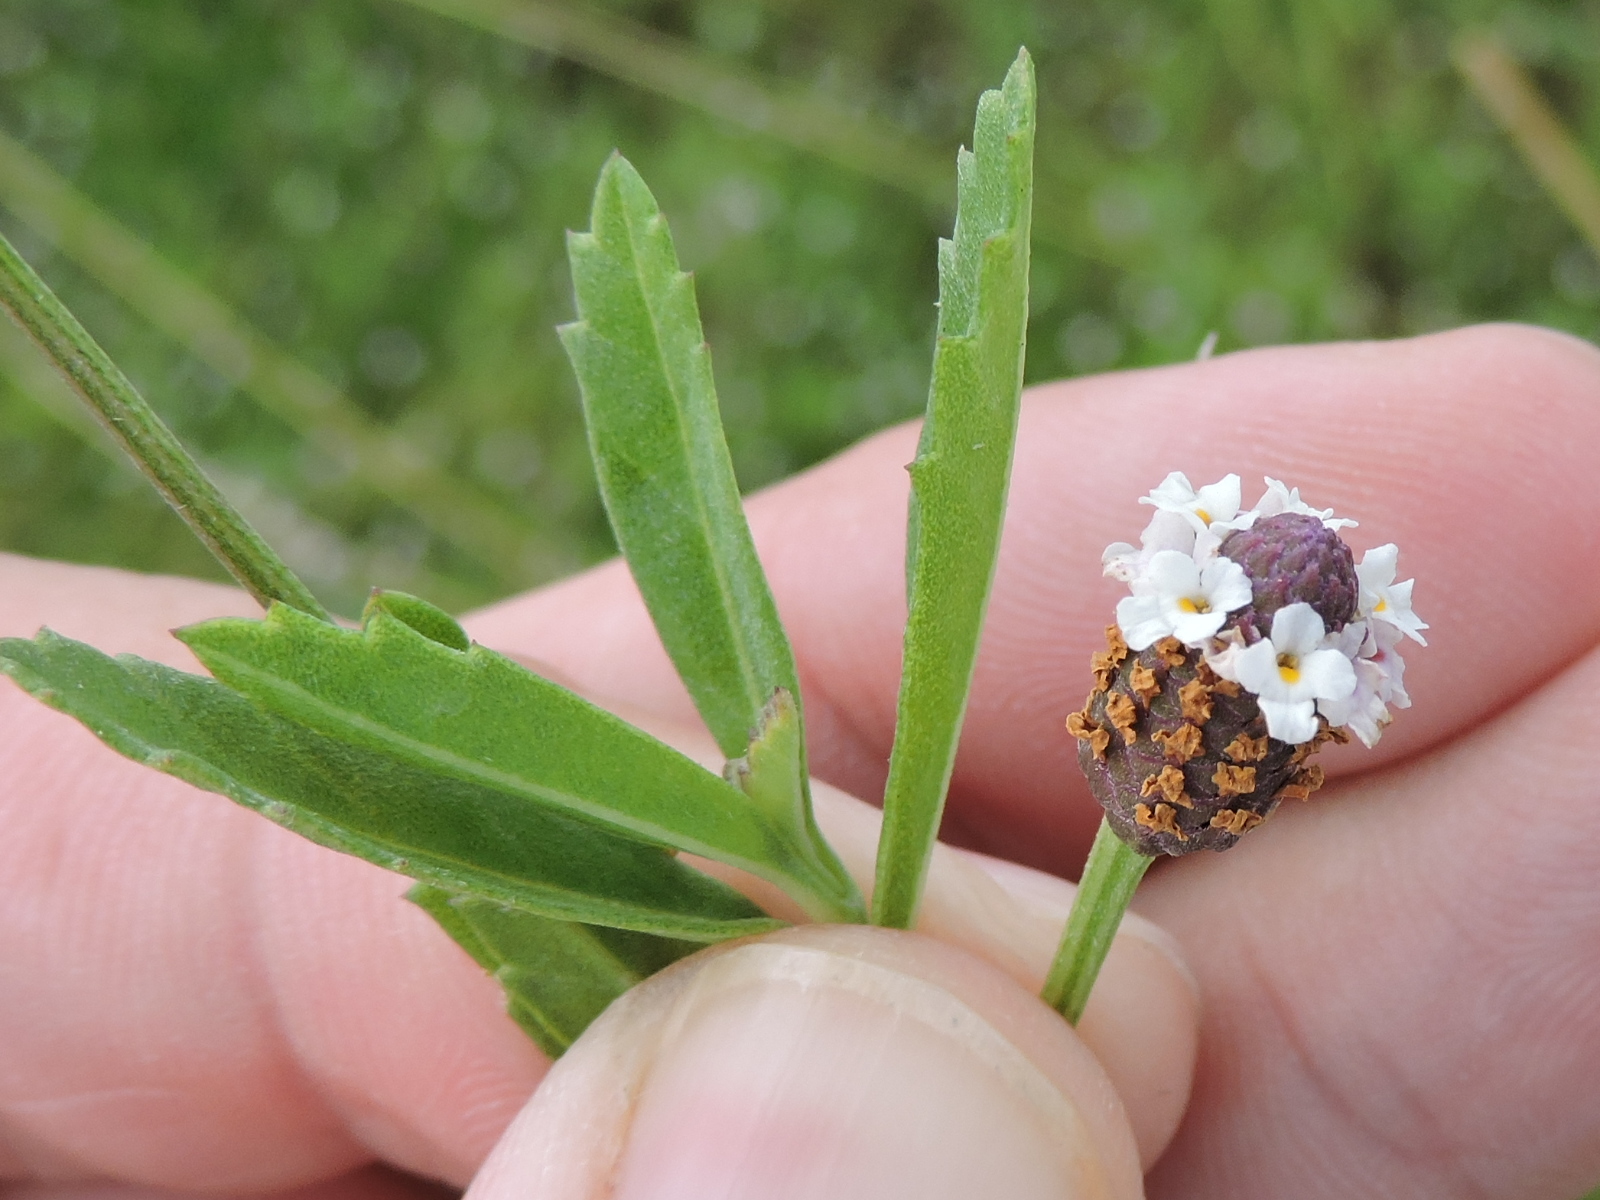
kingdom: Plantae
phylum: Tracheophyta
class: Magnoliopsida
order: Lamiales
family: Verbenaceae
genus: Phyla
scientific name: Phyla nodiflora
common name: Frogfruit
